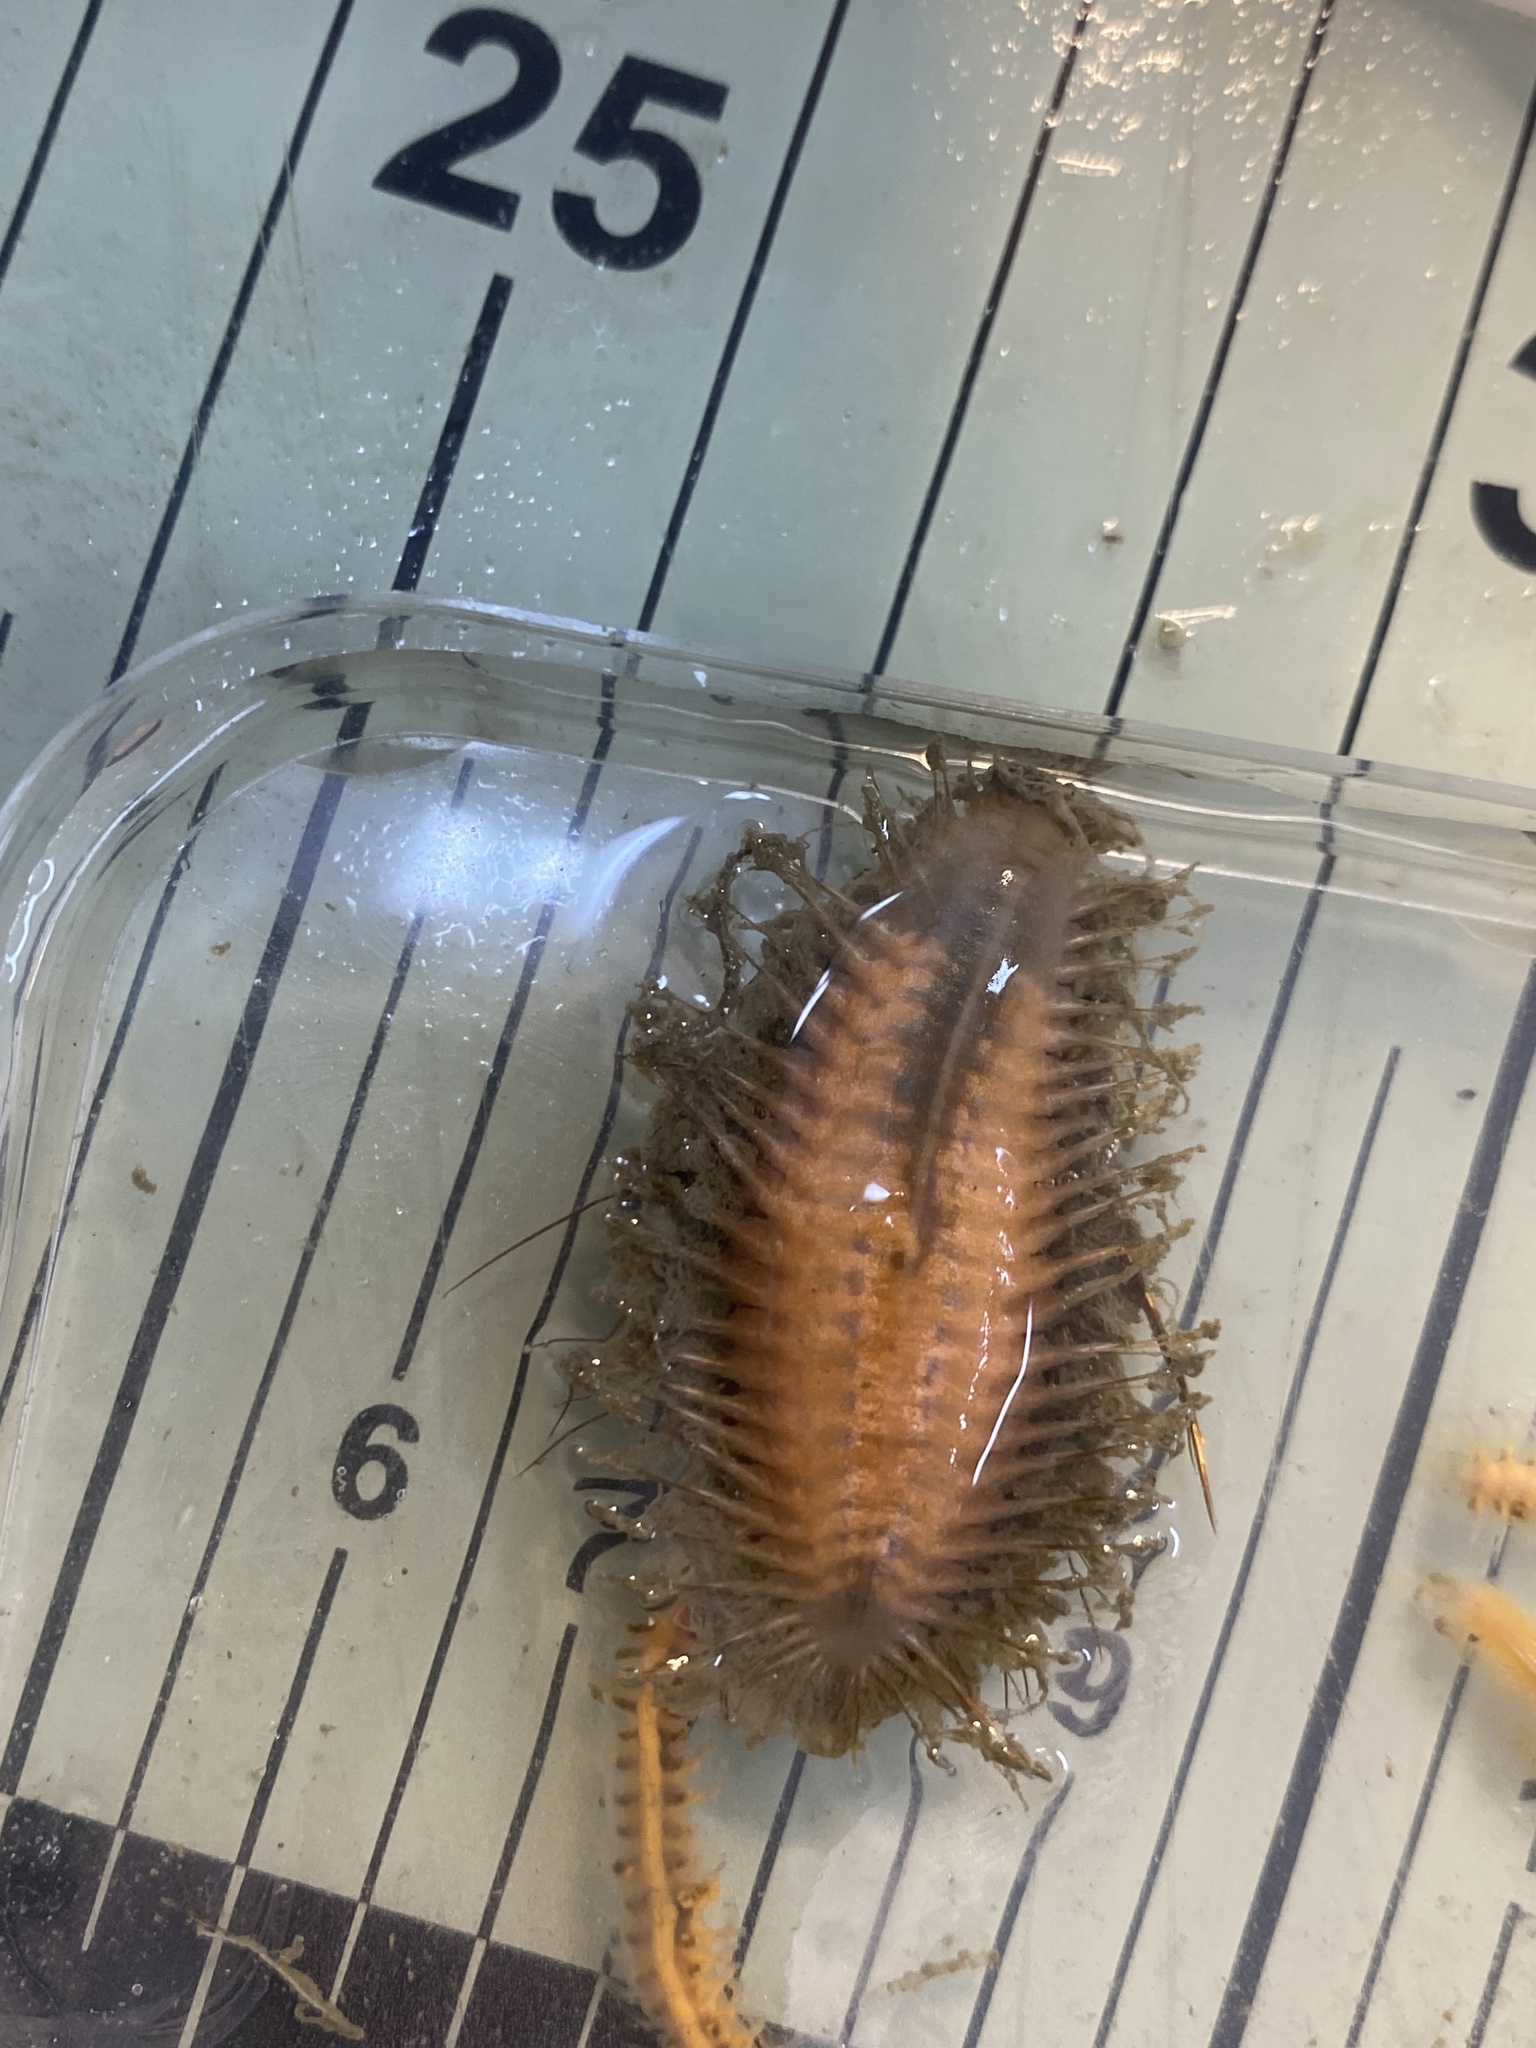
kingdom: Animalia
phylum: Annelida
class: Polychaeta
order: Phyllodocida
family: Aphroditidae
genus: Aphrodita
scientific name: Aphrodita
